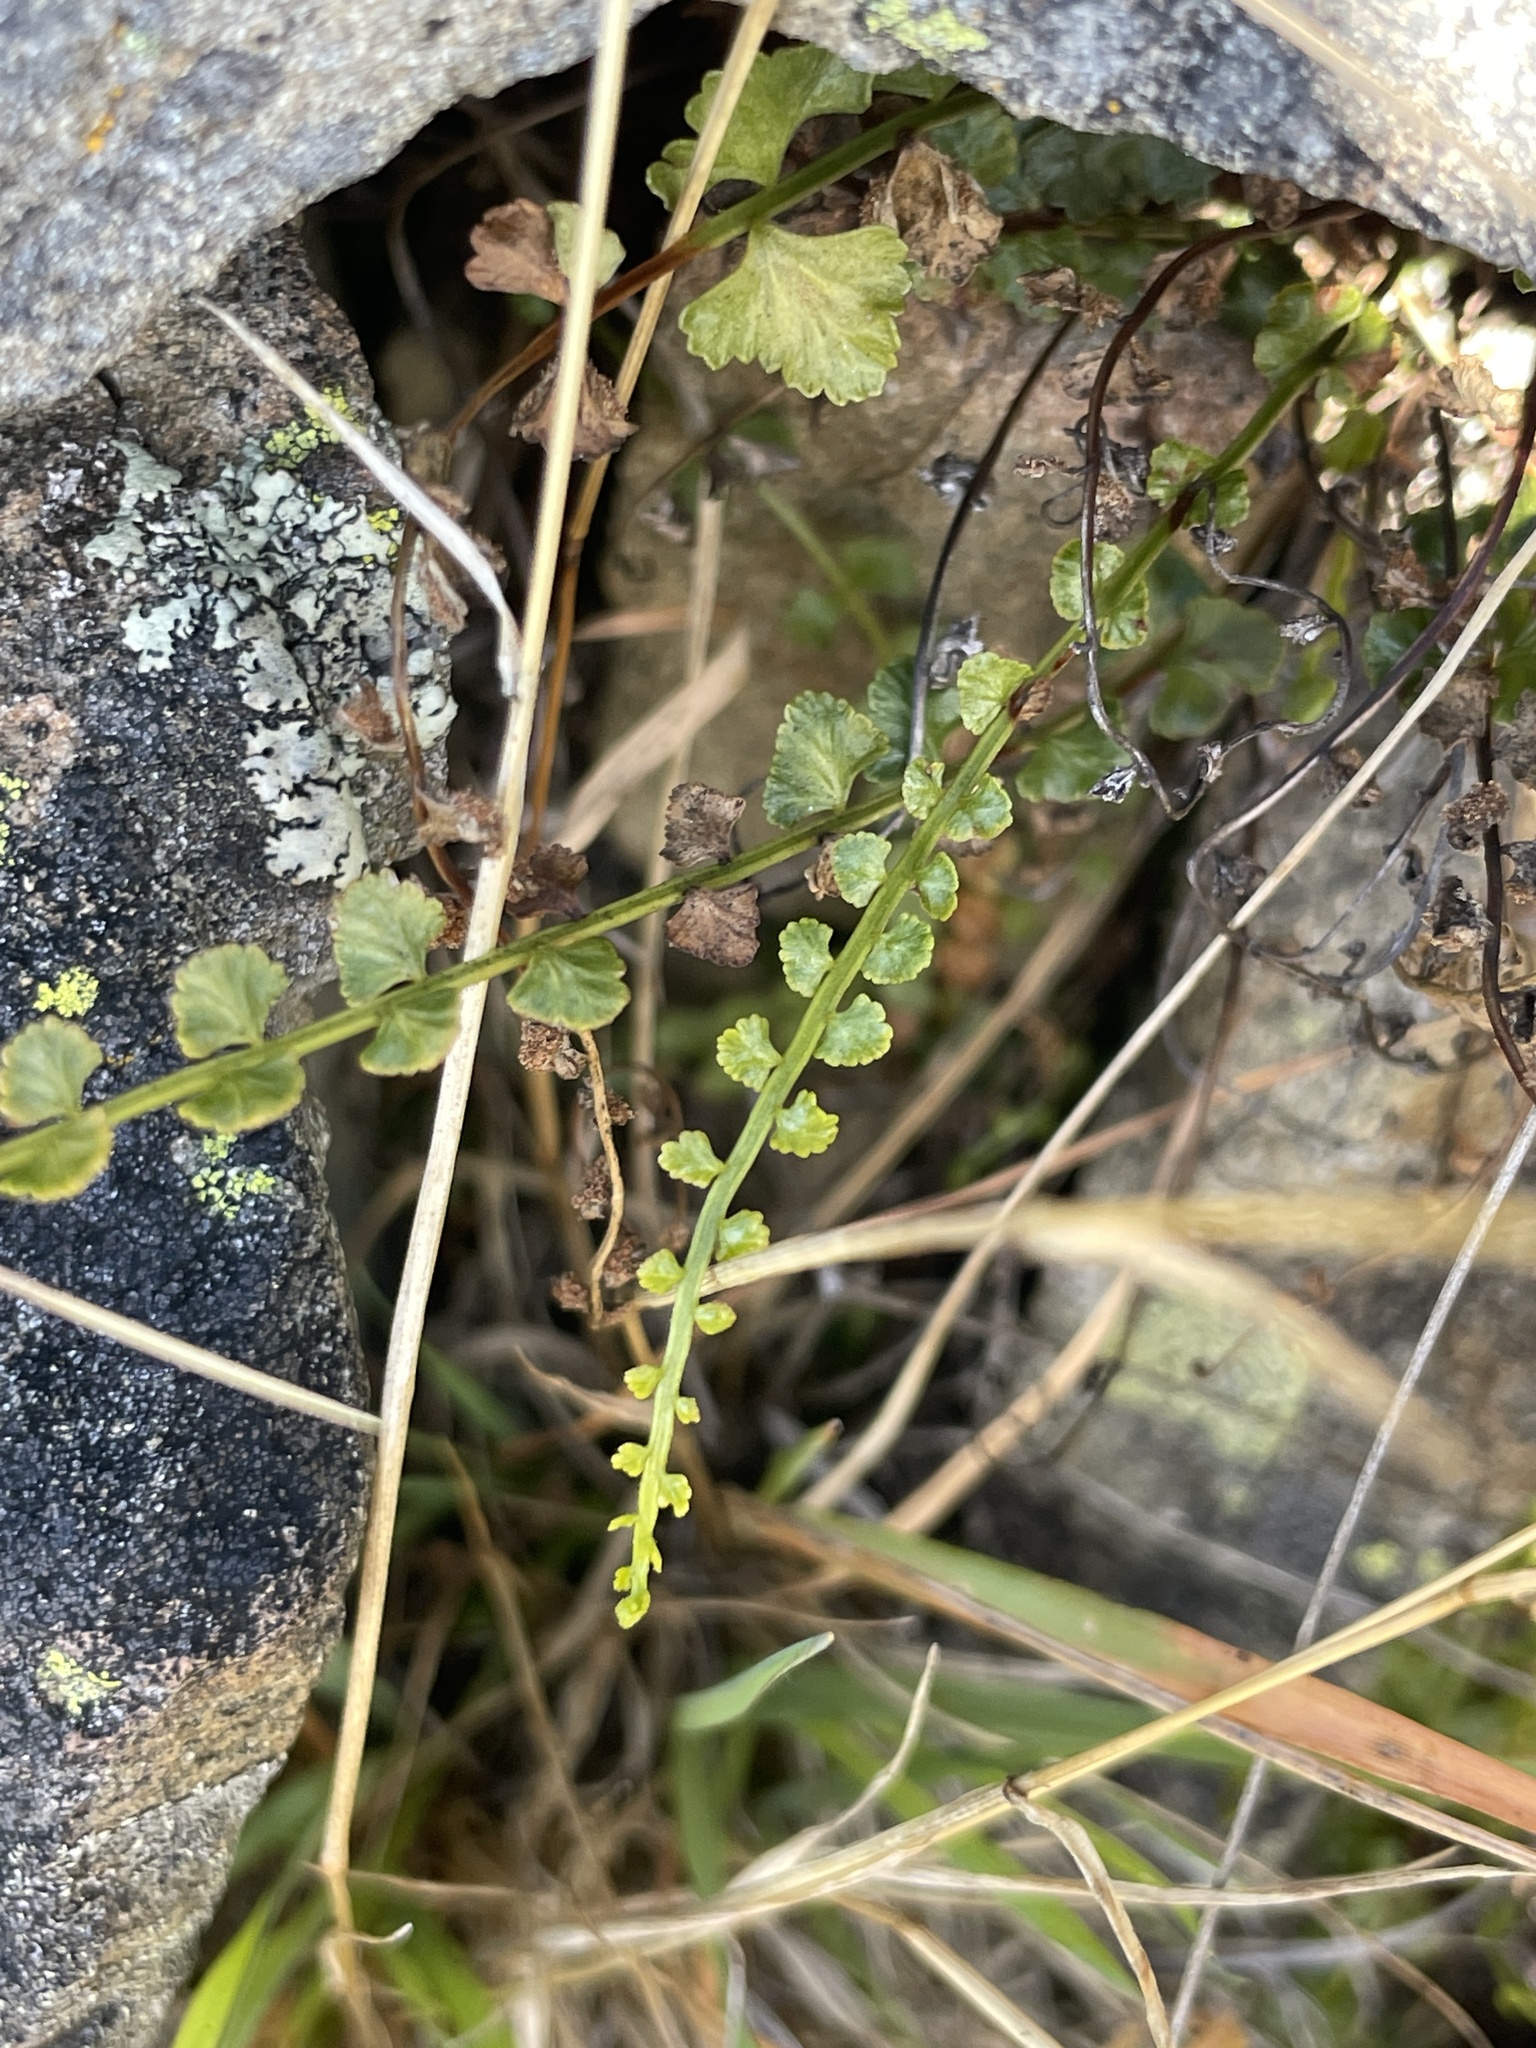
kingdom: Plantae
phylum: Tracheophyta
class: Polypodiopsida
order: Polypodiales
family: Aspleniaceae
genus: Asplenium
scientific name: Asplenium flabellifolium
